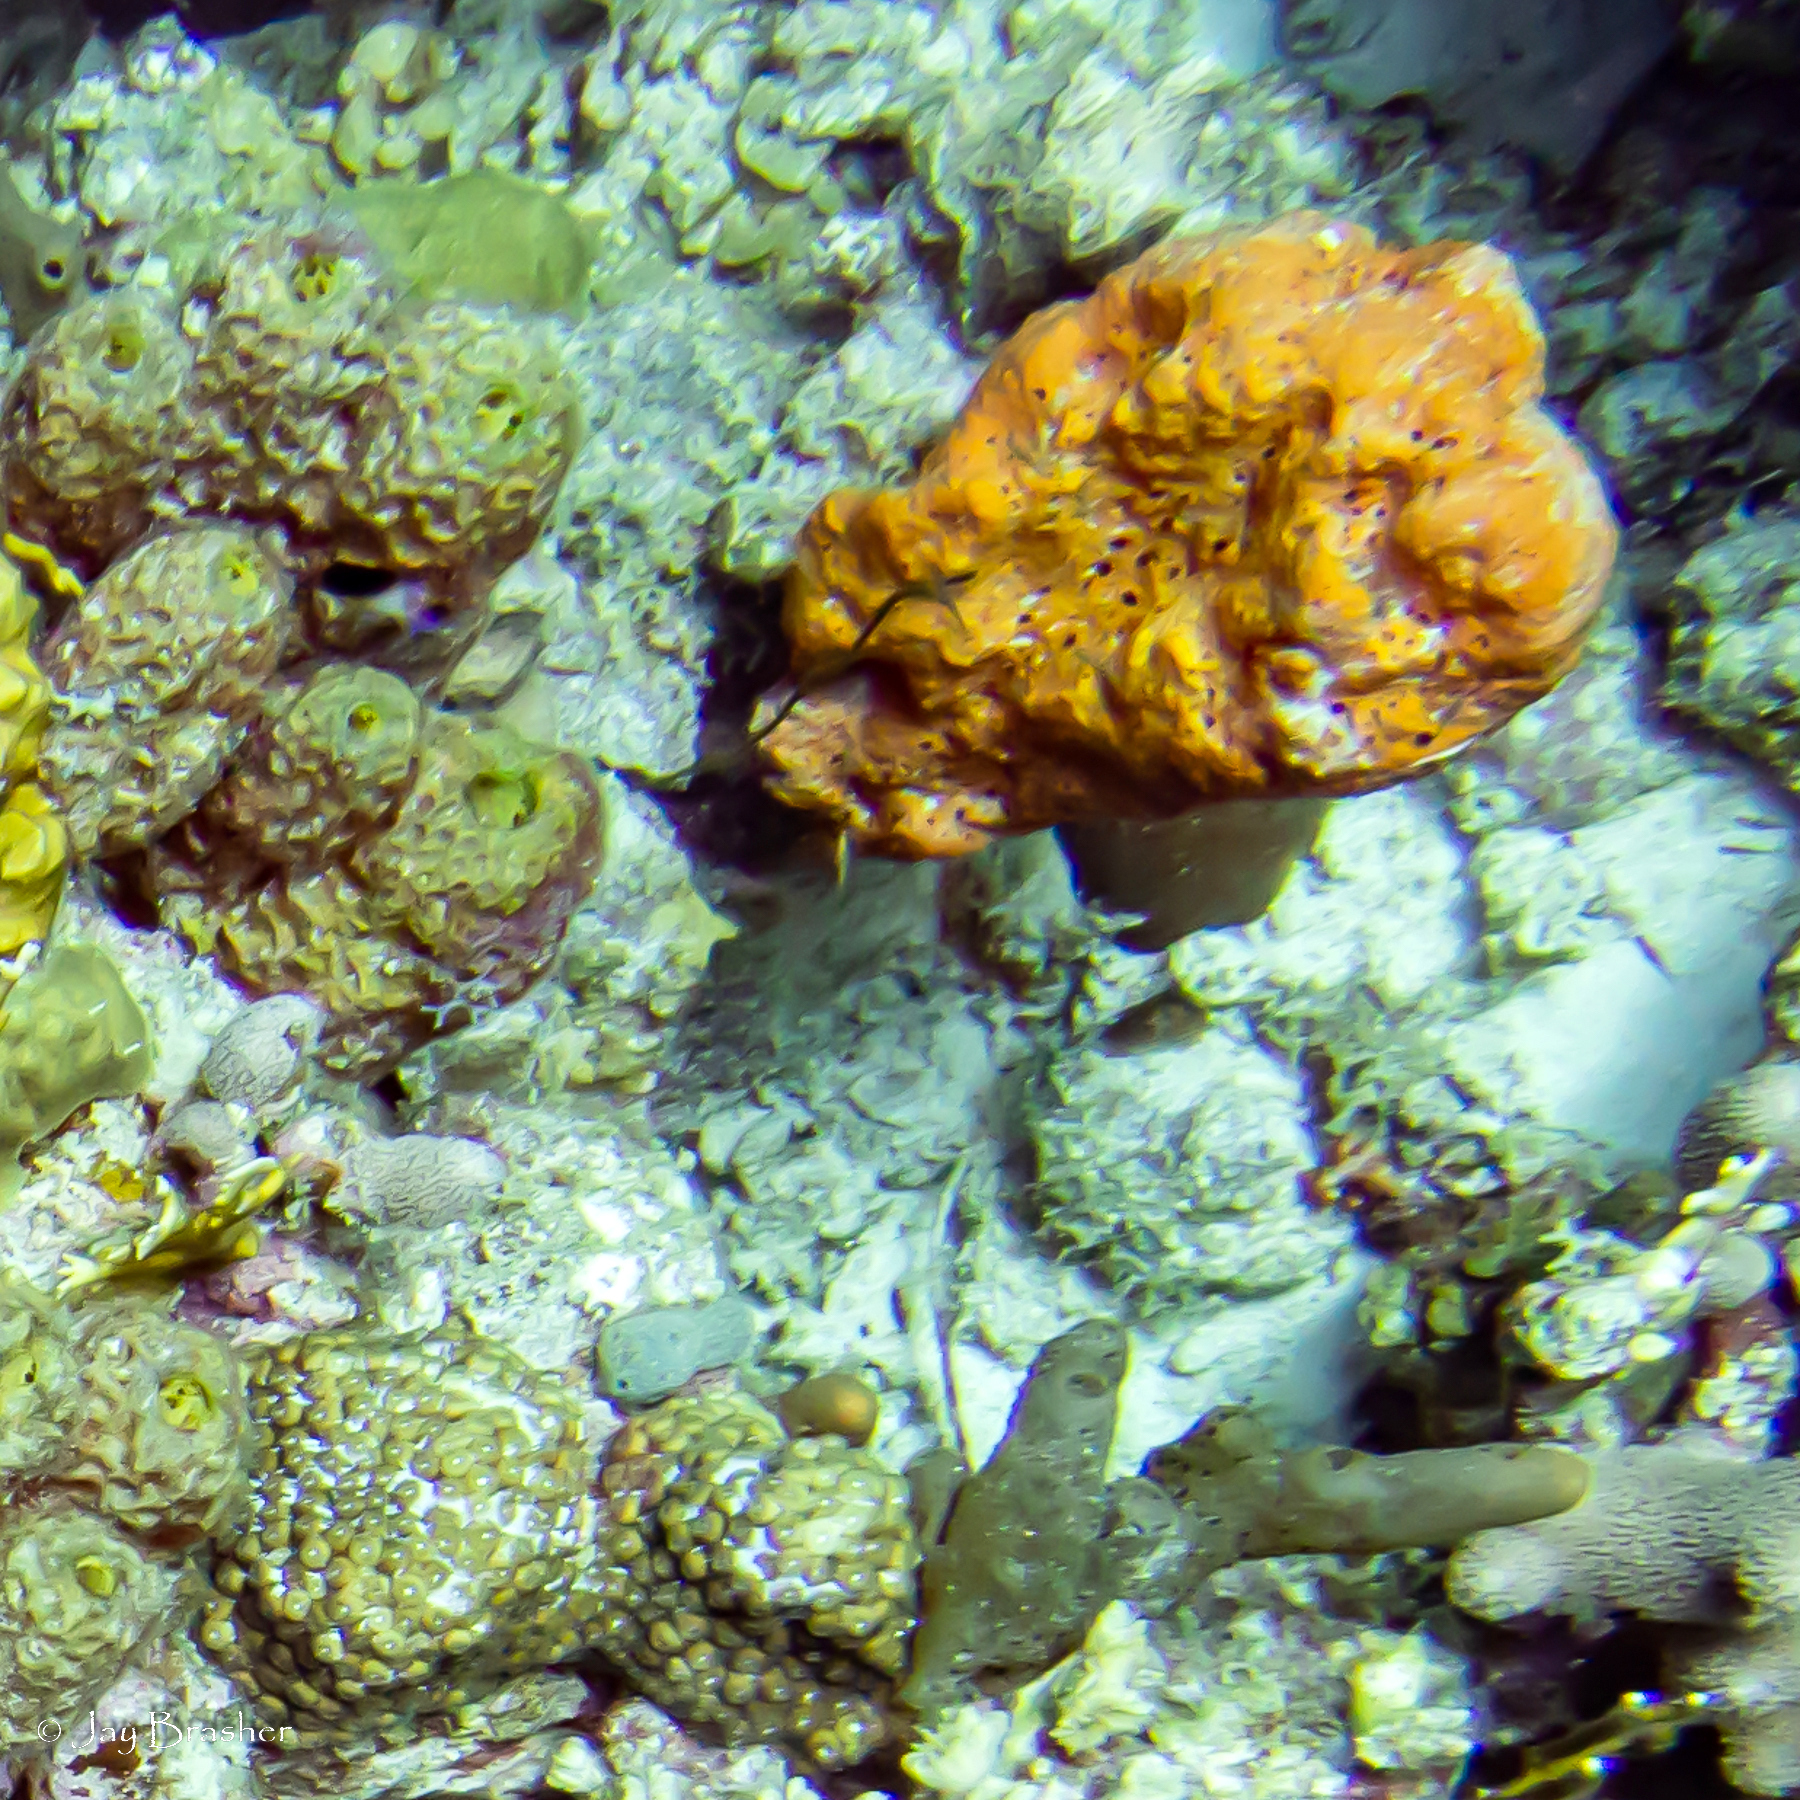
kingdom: Animalia
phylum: Porifera
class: Demospongiae
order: Agelasida
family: Agelasidae
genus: Agelas
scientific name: Agelas clathrodes
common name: Orange elephant ear sponge
